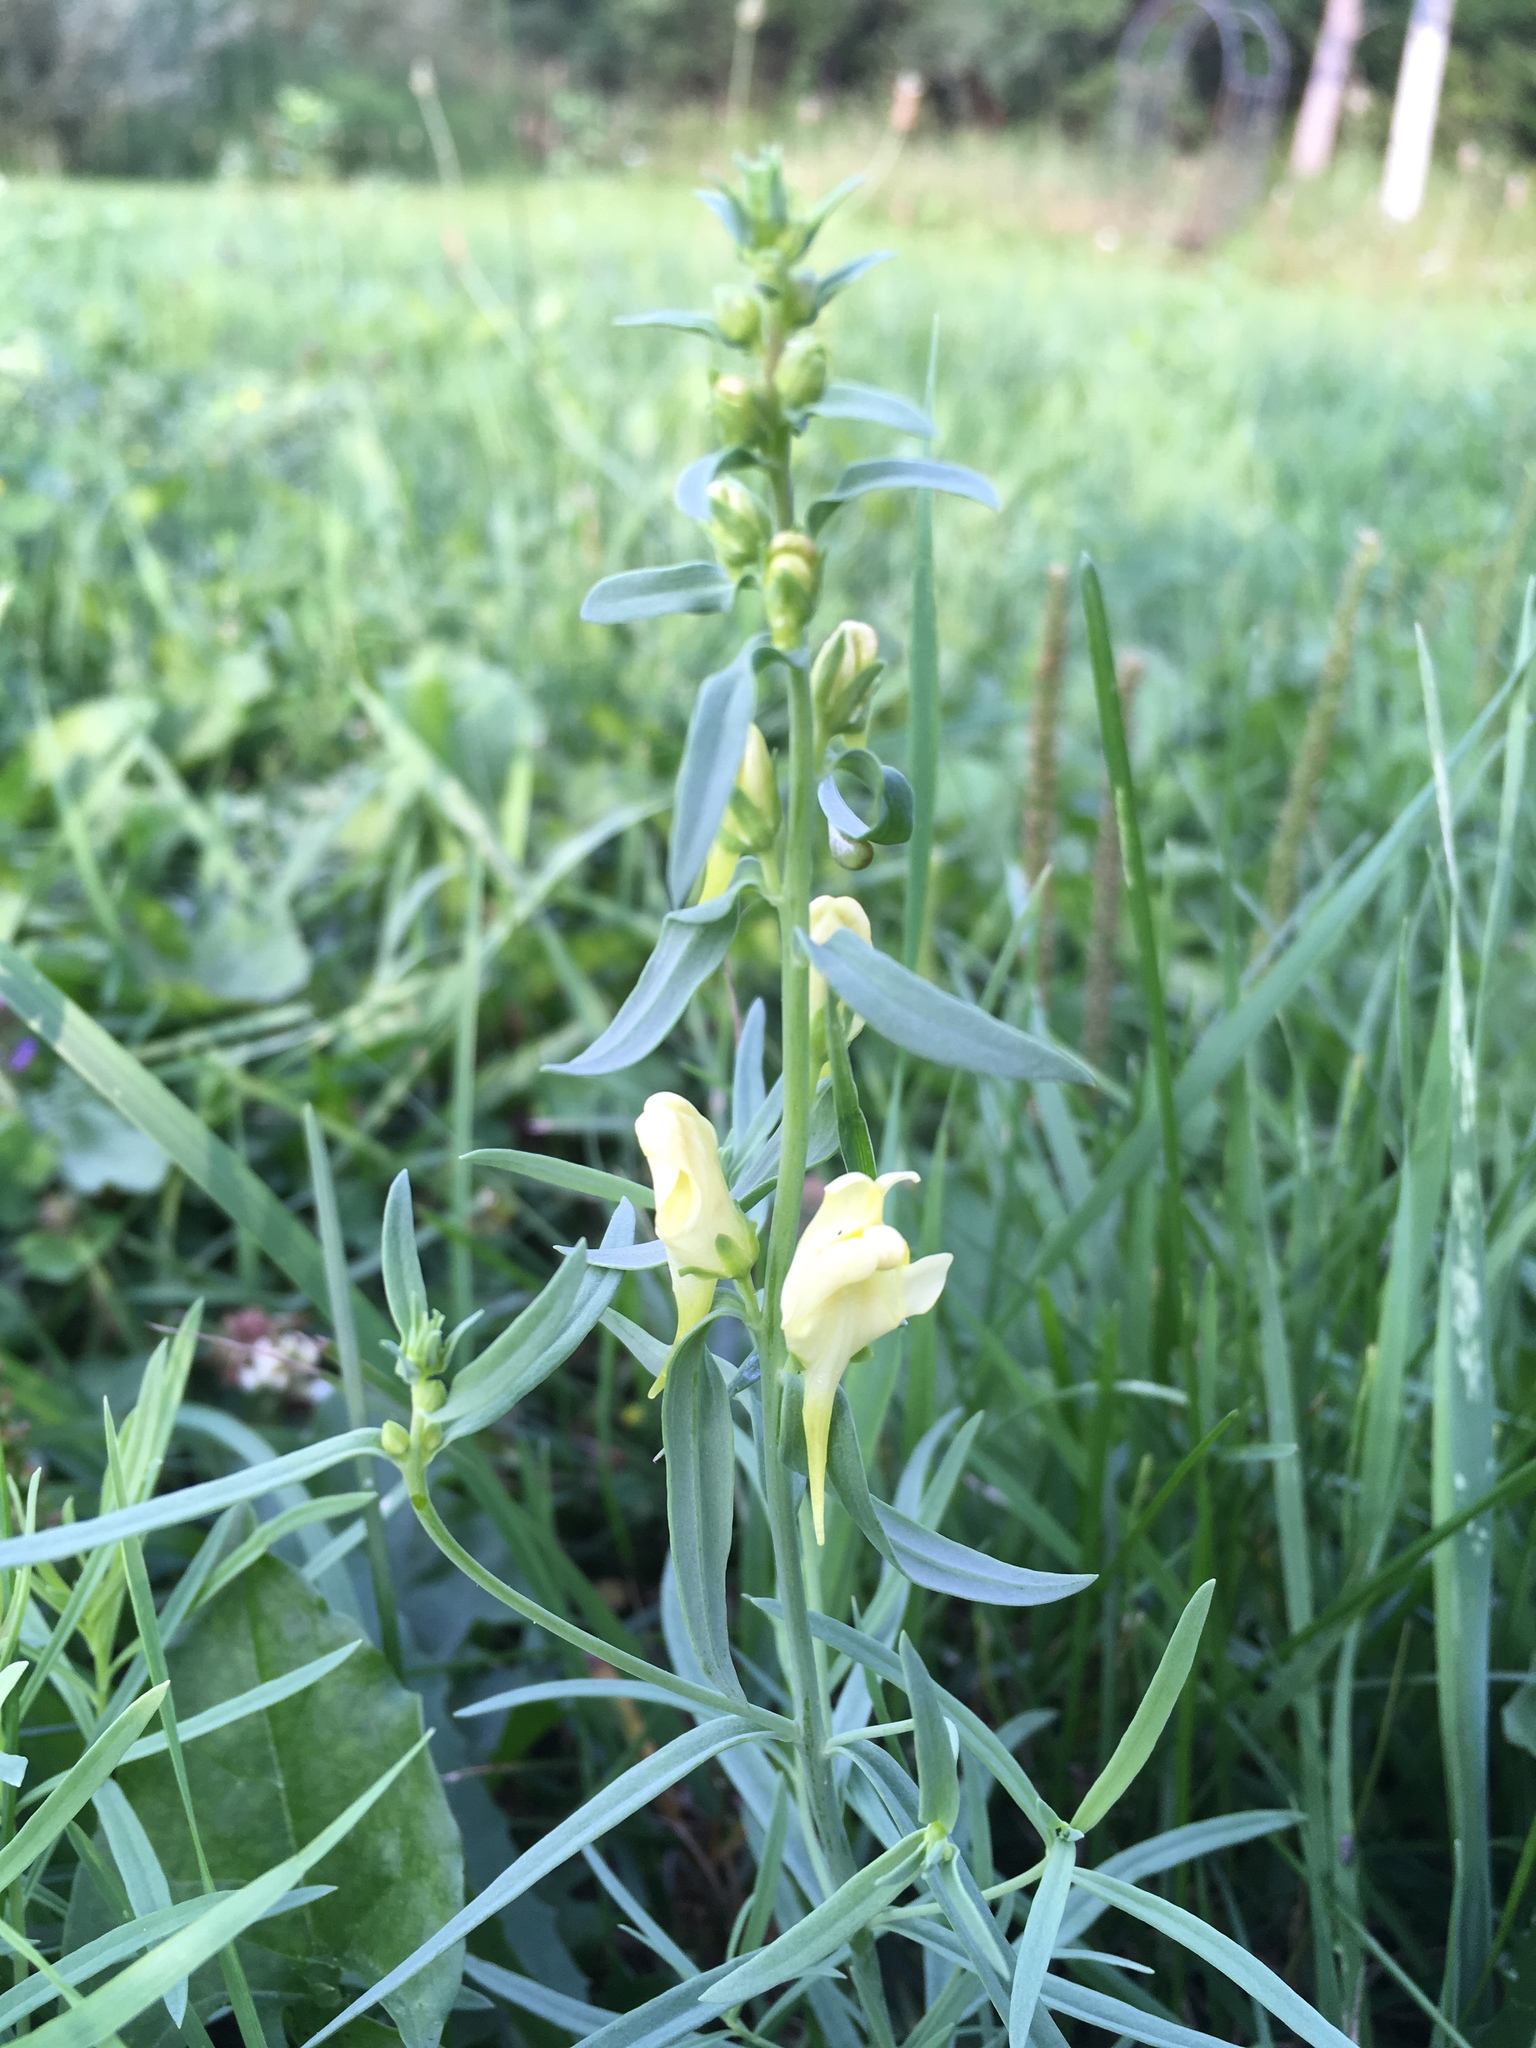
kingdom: Plantae
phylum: Tracheophyta
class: Magnoliopsida
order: Lamiales
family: Plantaginaceae
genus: Linaria
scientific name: Linaria vulgaris
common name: Butter and eggs
